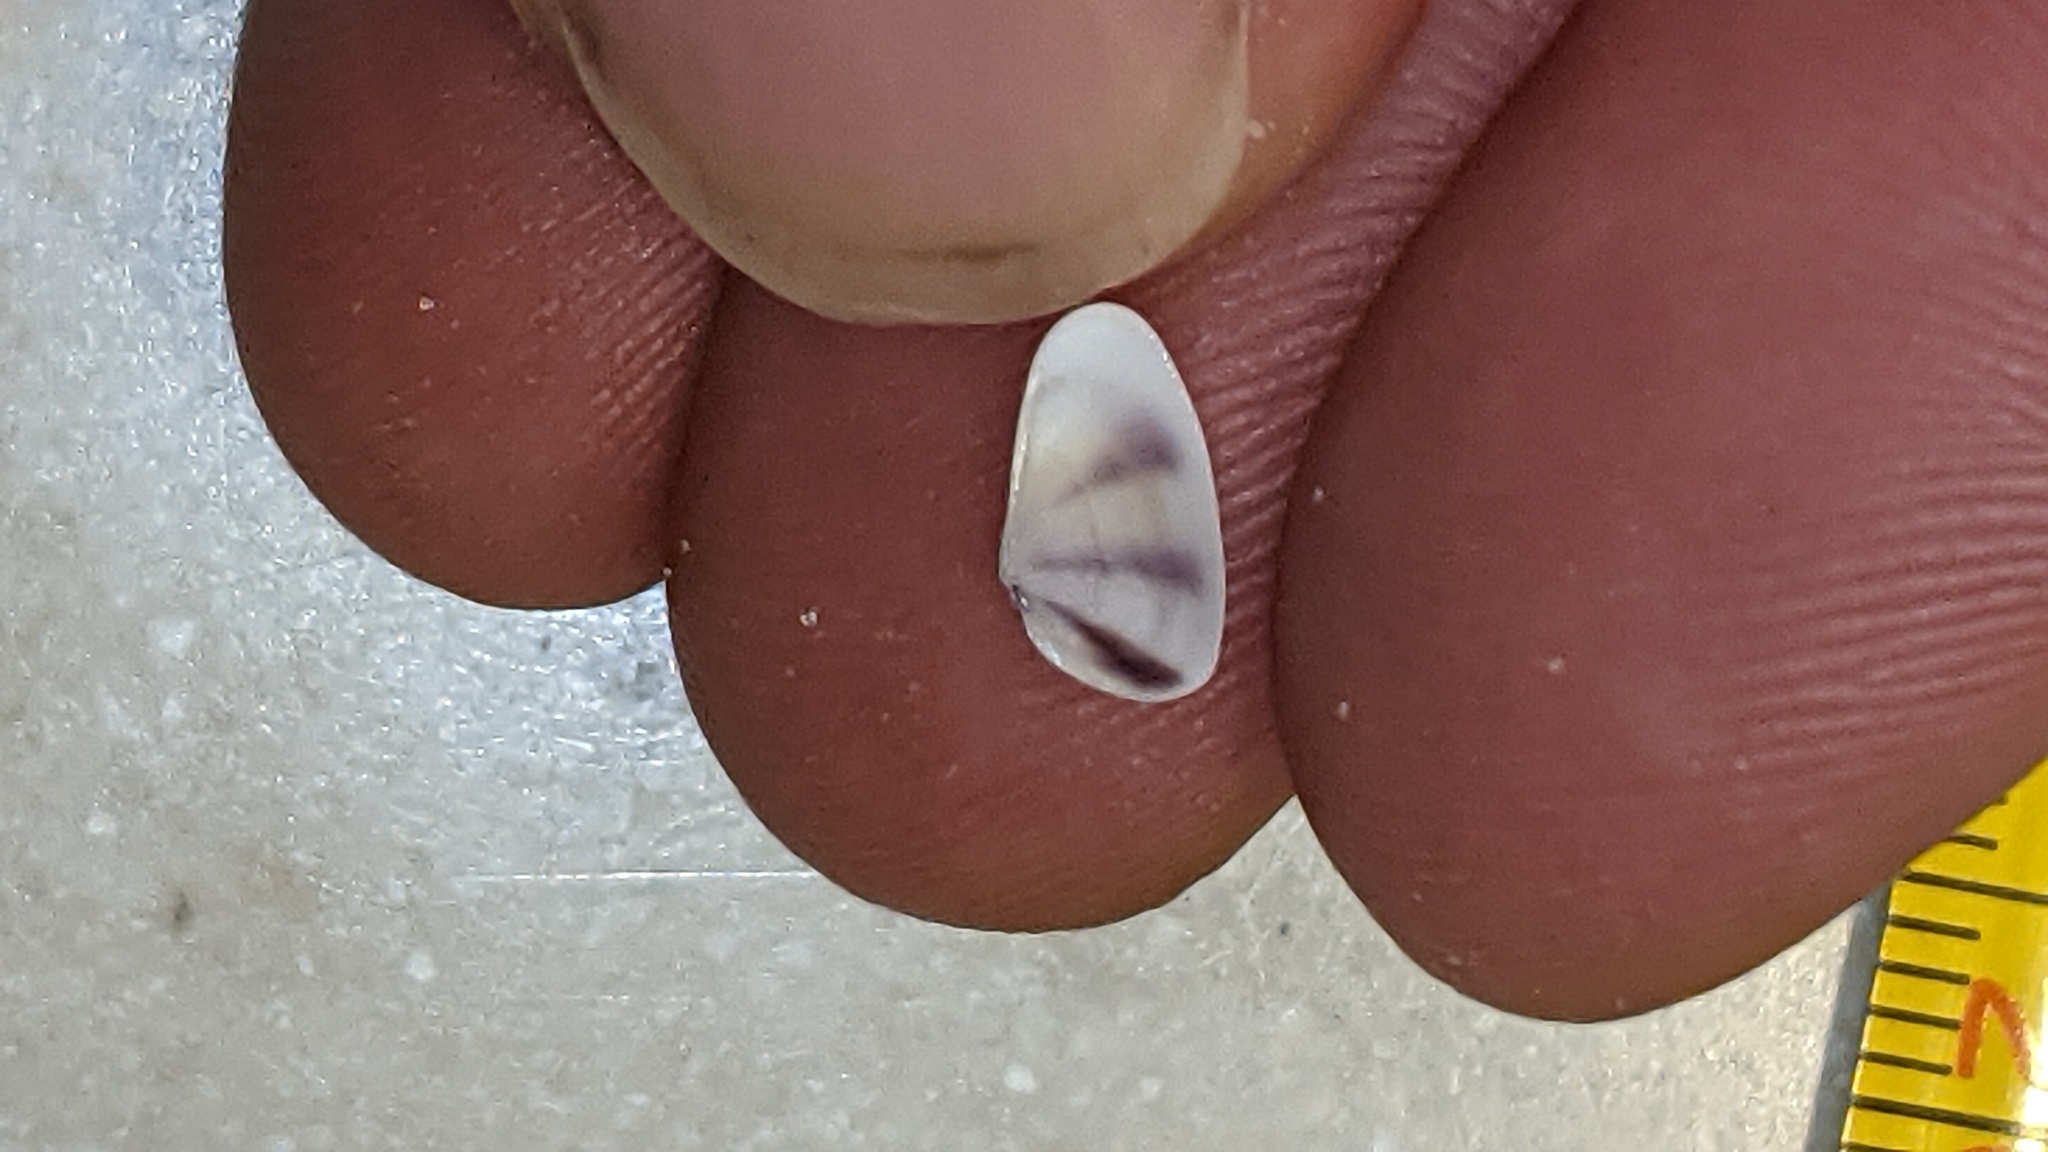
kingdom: Animalia
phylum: Mollusca
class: Bivalvia
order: Cardiida
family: Donacidae
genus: Donax
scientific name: Donax variabilis
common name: Butterfly shell
